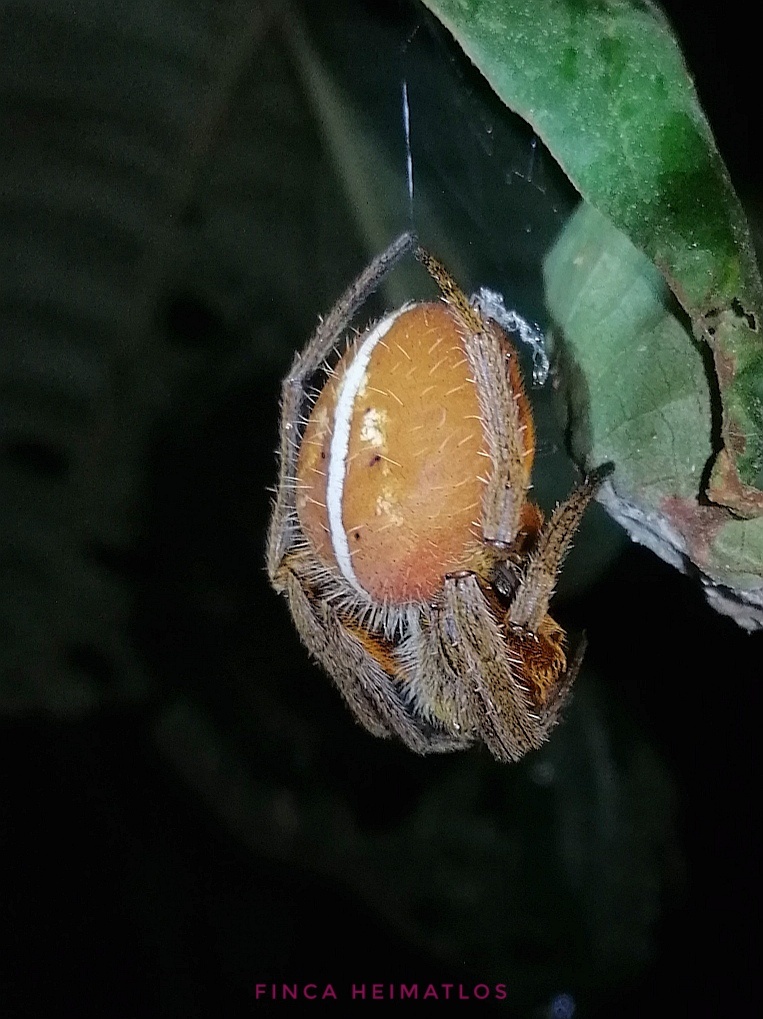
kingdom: Animalia
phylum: Arthropoda
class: Arachnida
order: Araneae
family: Araneidae
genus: Eriophora
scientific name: Eriophora fuliginea
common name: Orb weavers
